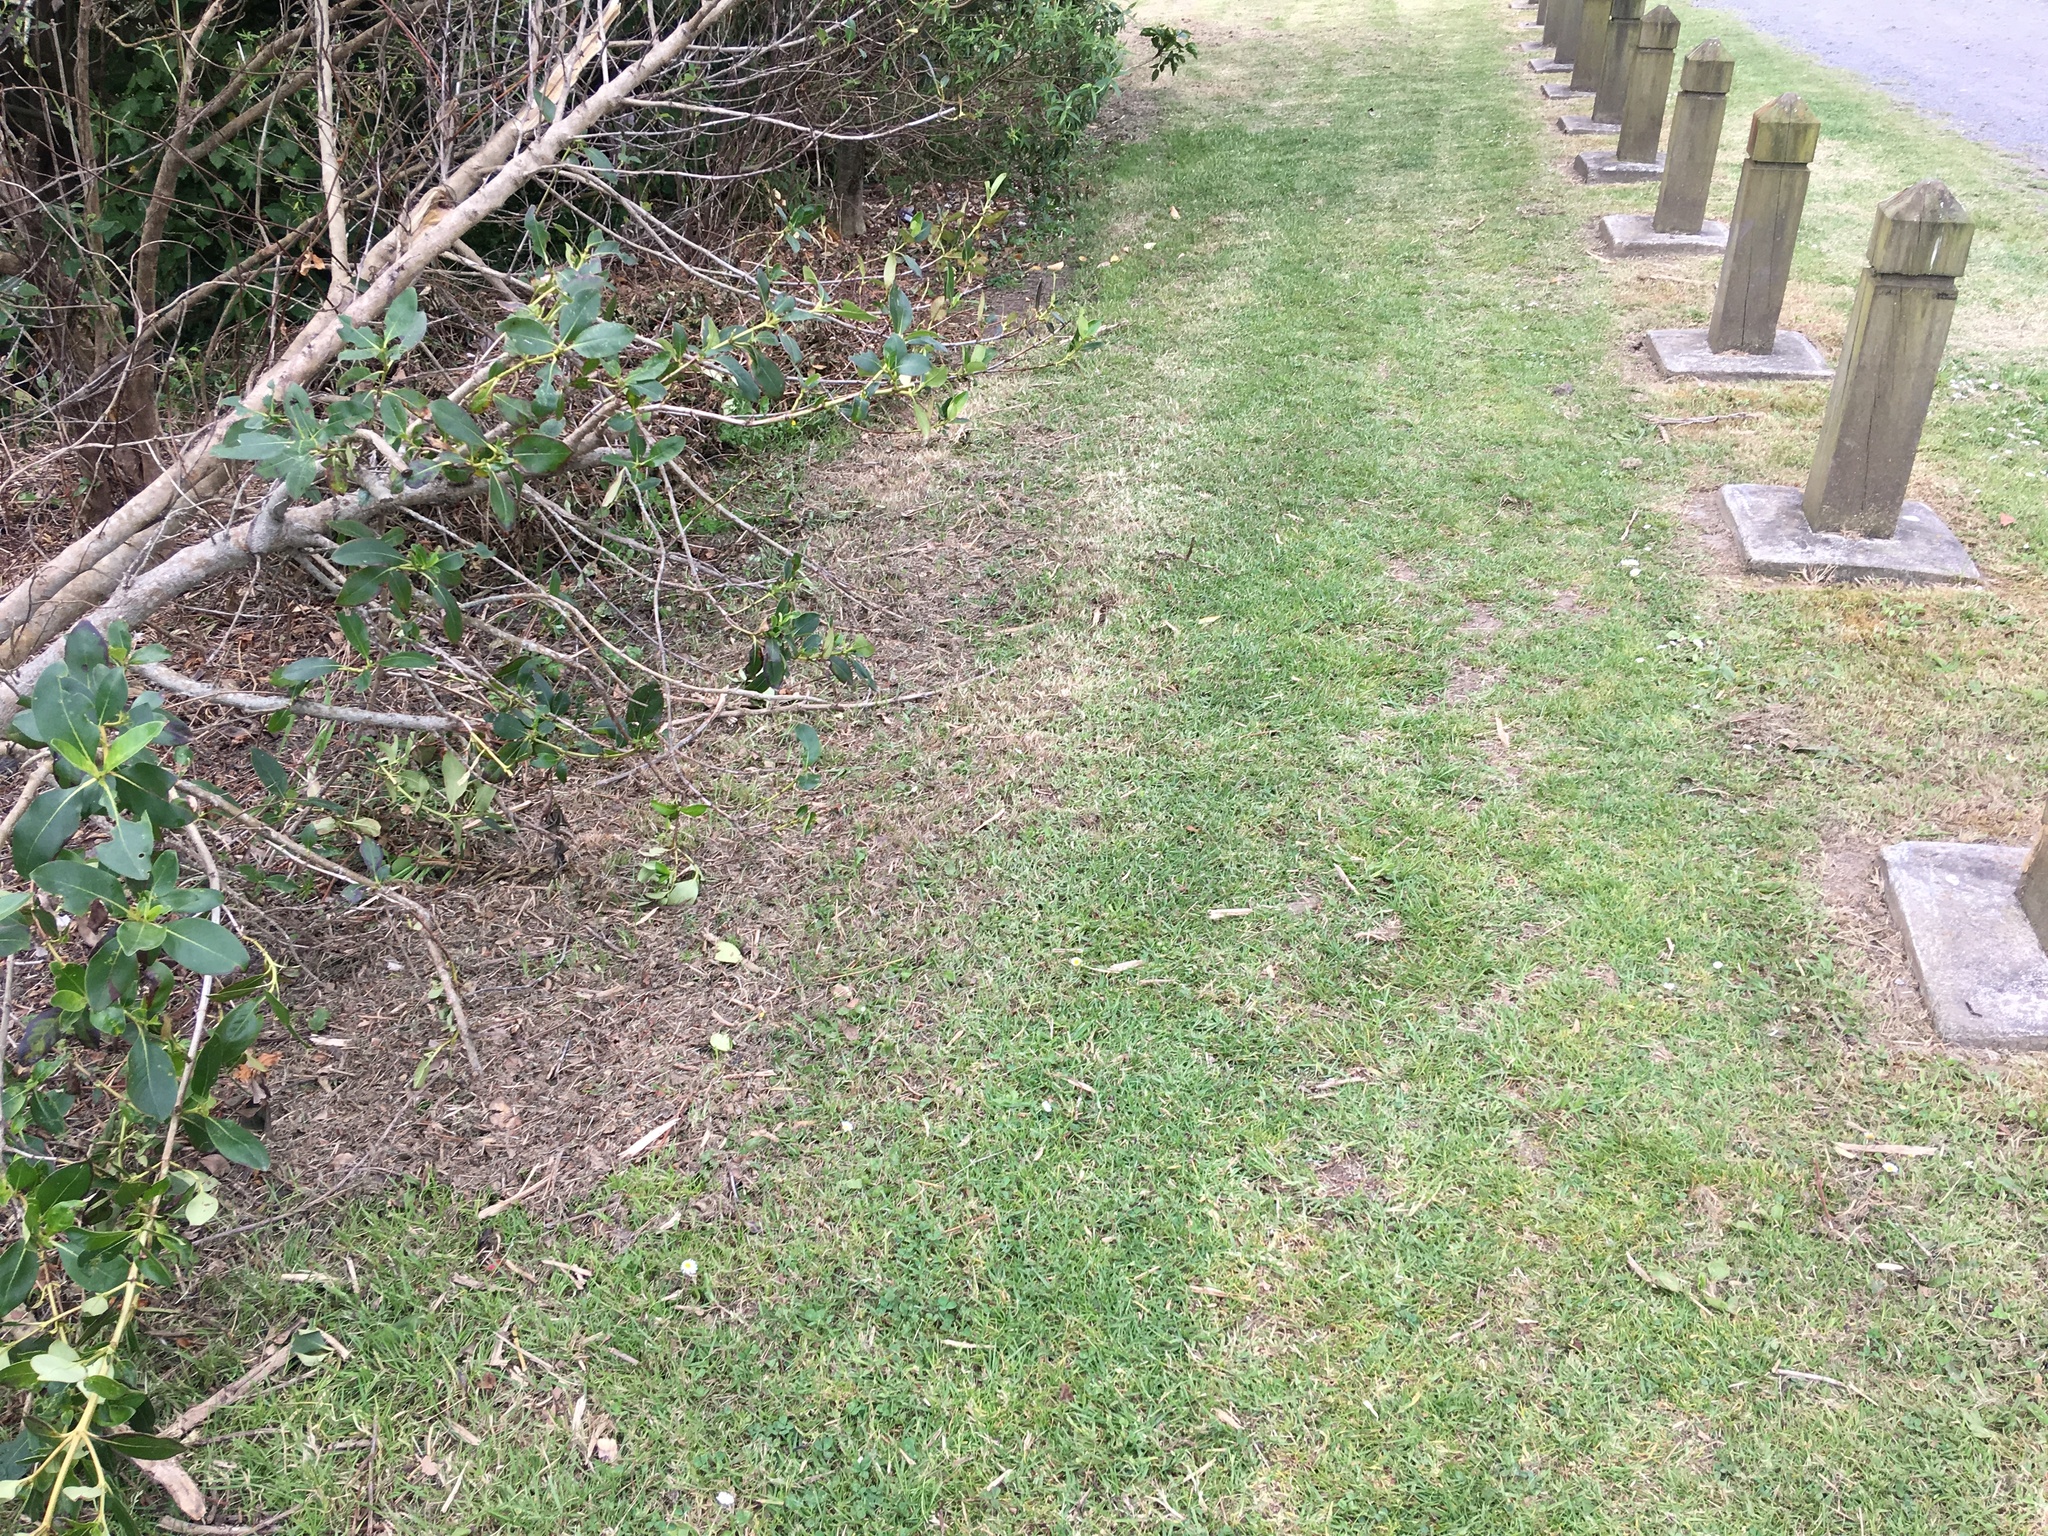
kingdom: Plantae
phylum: Tracheophyta
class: Liliopsida
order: Poales
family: Poaceae
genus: Cenchrus
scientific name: Cenchrus clandestinus
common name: Kikuyugrass
